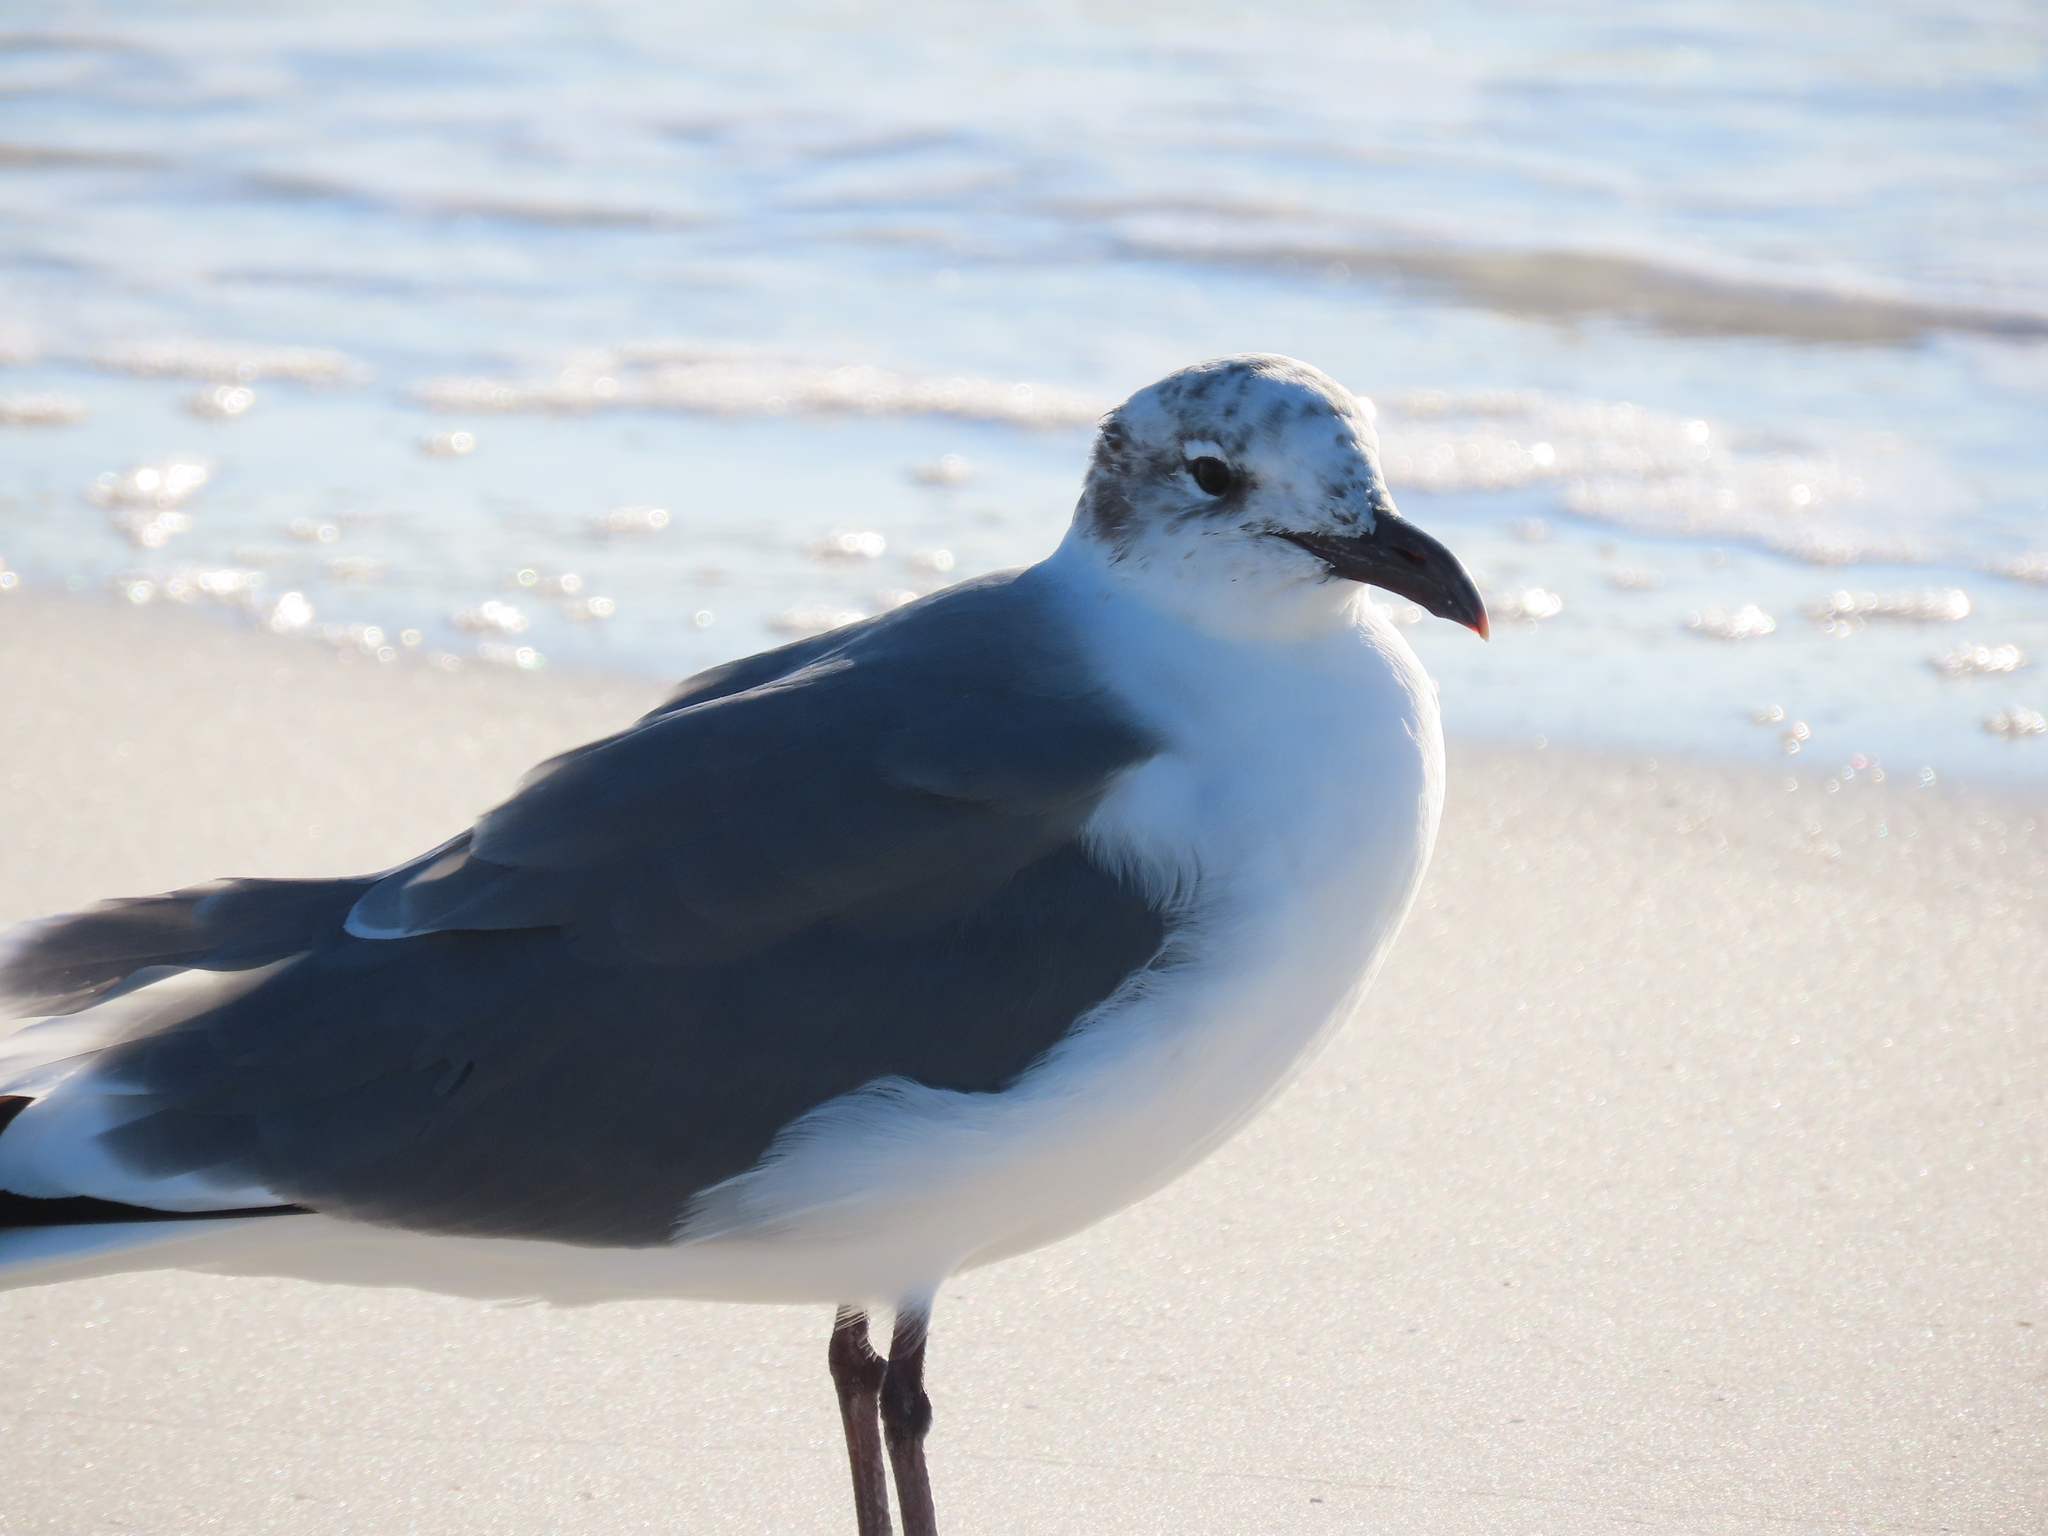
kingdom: Animalia
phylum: Chordata
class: Aves
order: Charadriiformes
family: Laridae
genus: Leucophaeus
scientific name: Leucophaeus atricilla
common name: Laughing gull
